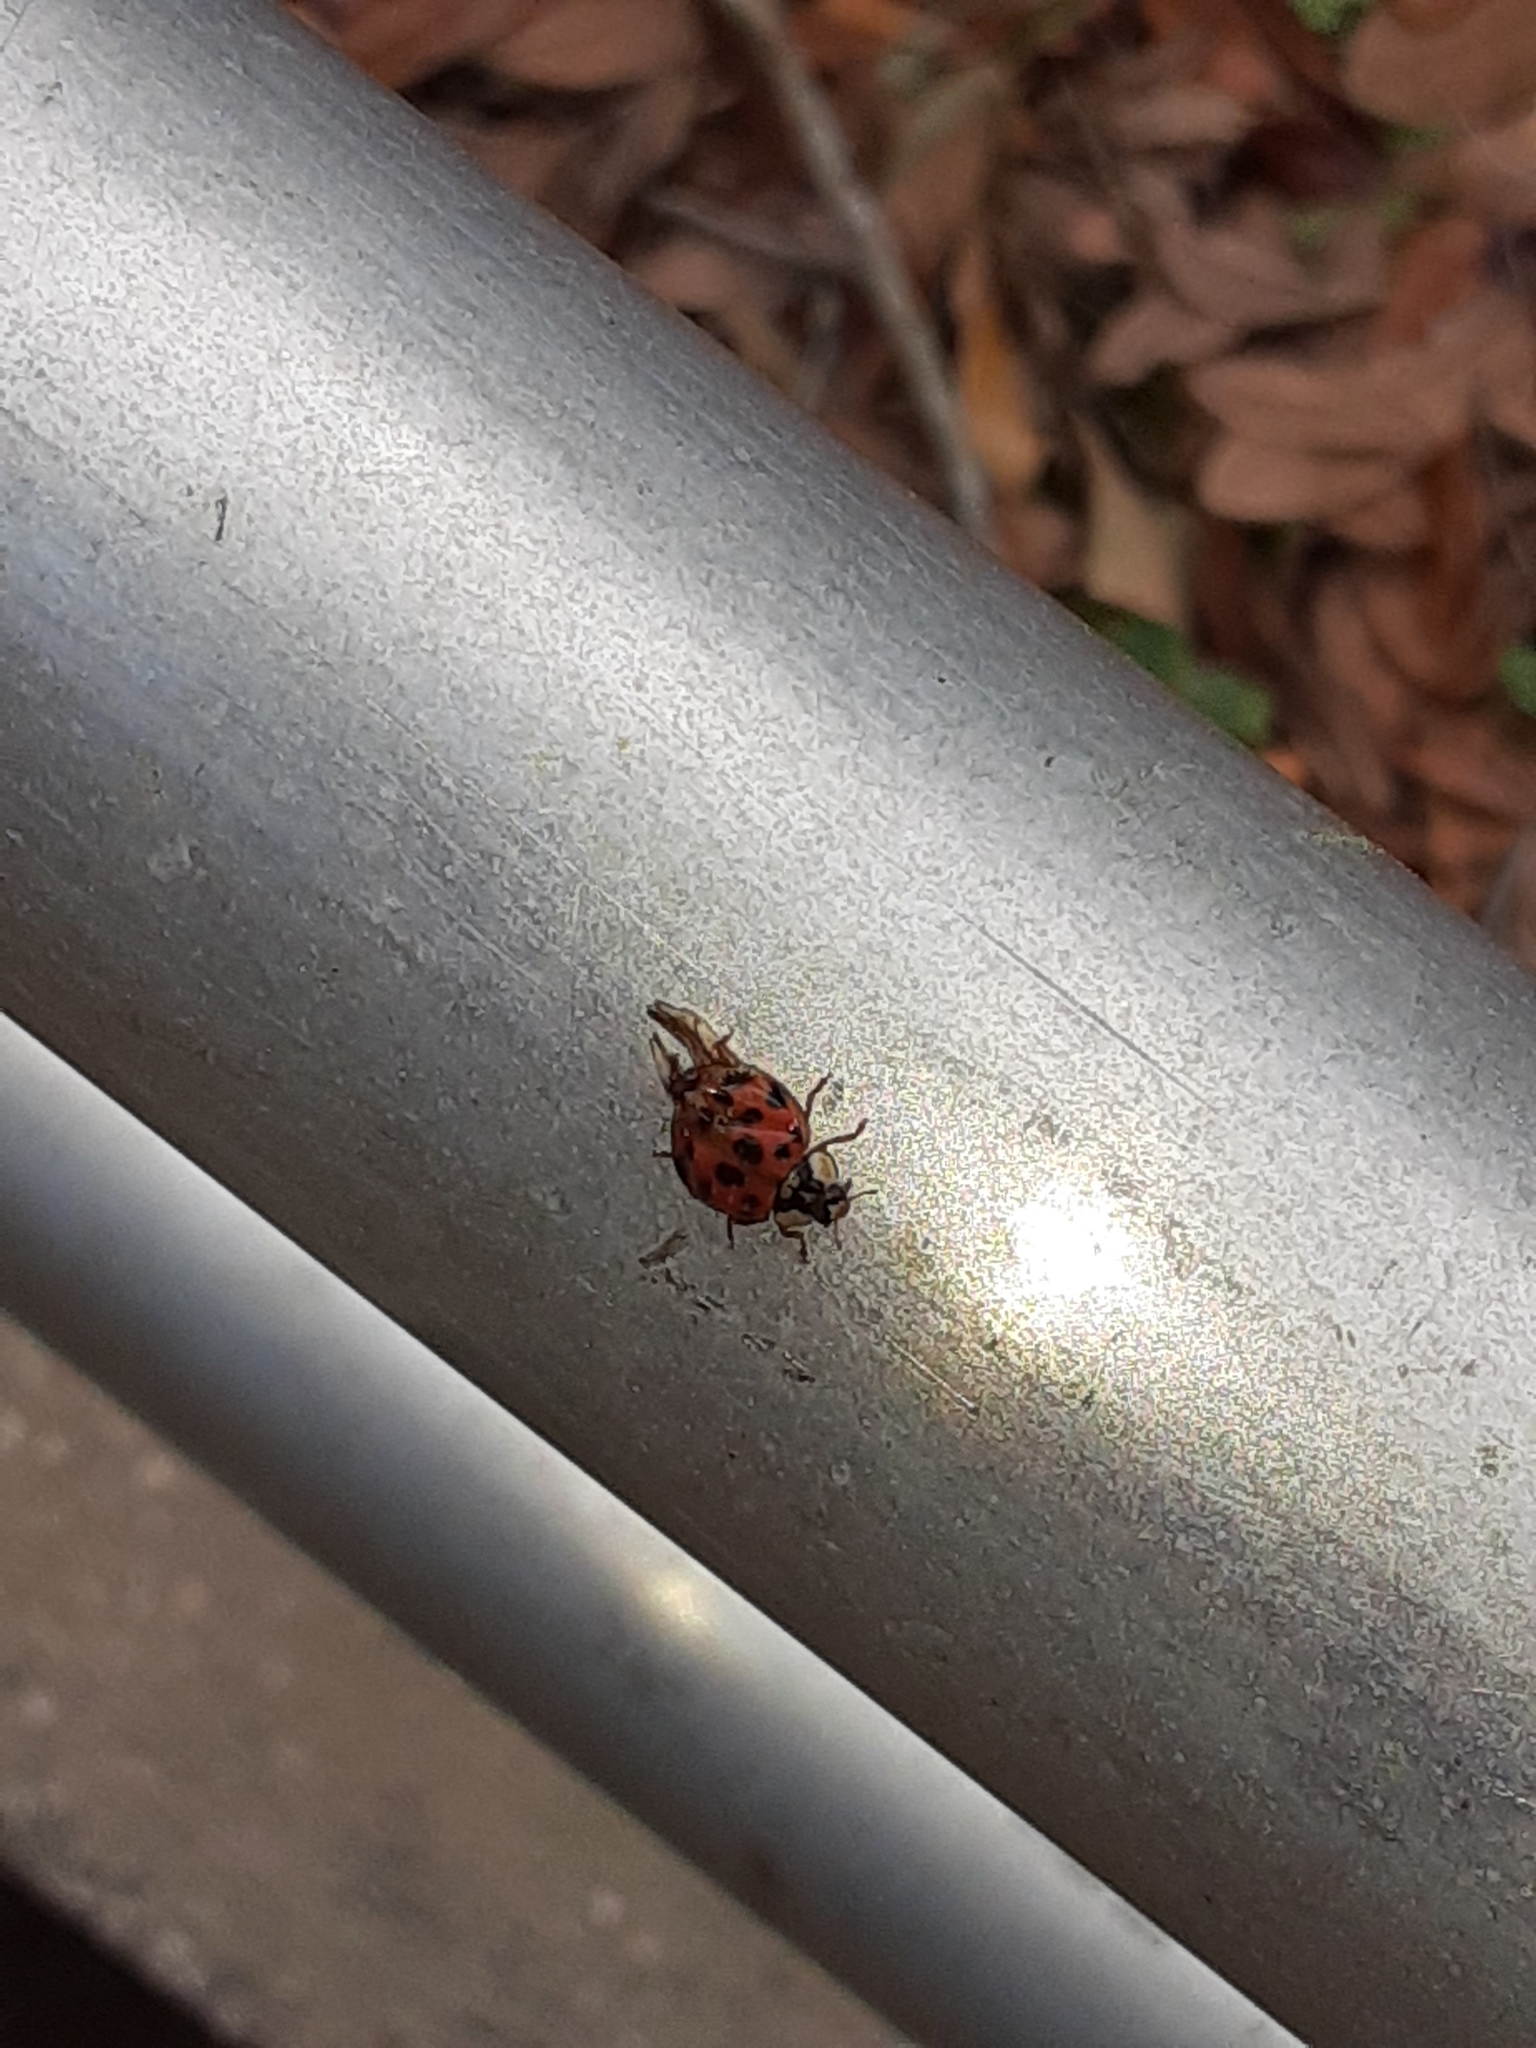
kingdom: Animalia
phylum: Arthropoda
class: Insecta
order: Coleoptera
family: Coccinellidae
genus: Harmonia
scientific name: Harmonia axyridis
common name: Harlequin ladybird
